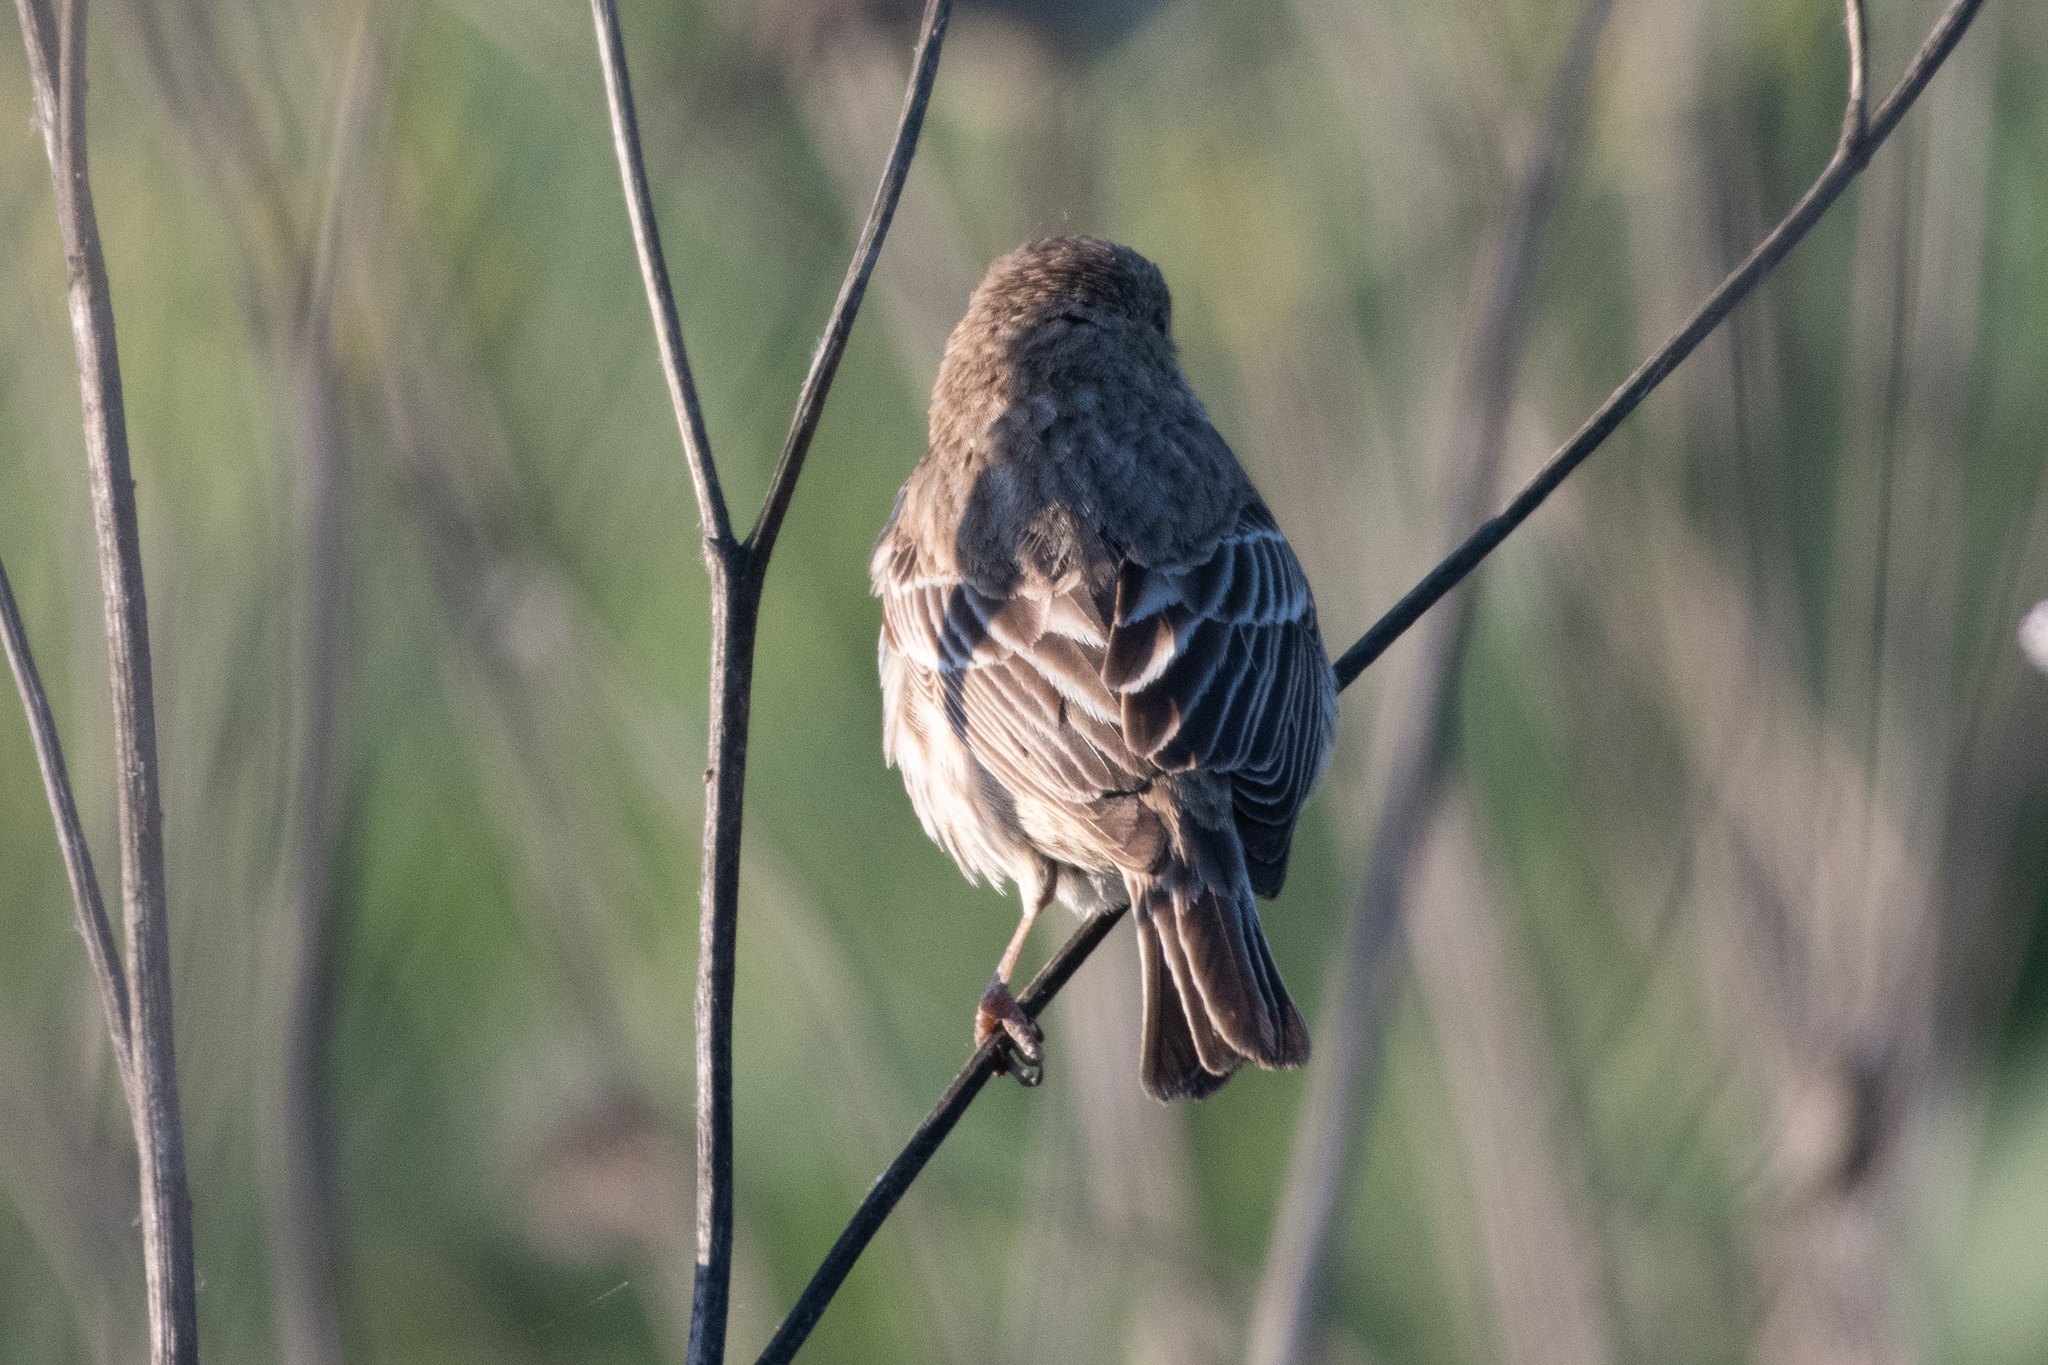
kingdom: Animalia
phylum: Chordata
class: Aves
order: Passeriformes
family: Fringillidae
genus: Haemorhous
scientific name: Haemorhous mexicanus
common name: House finch
